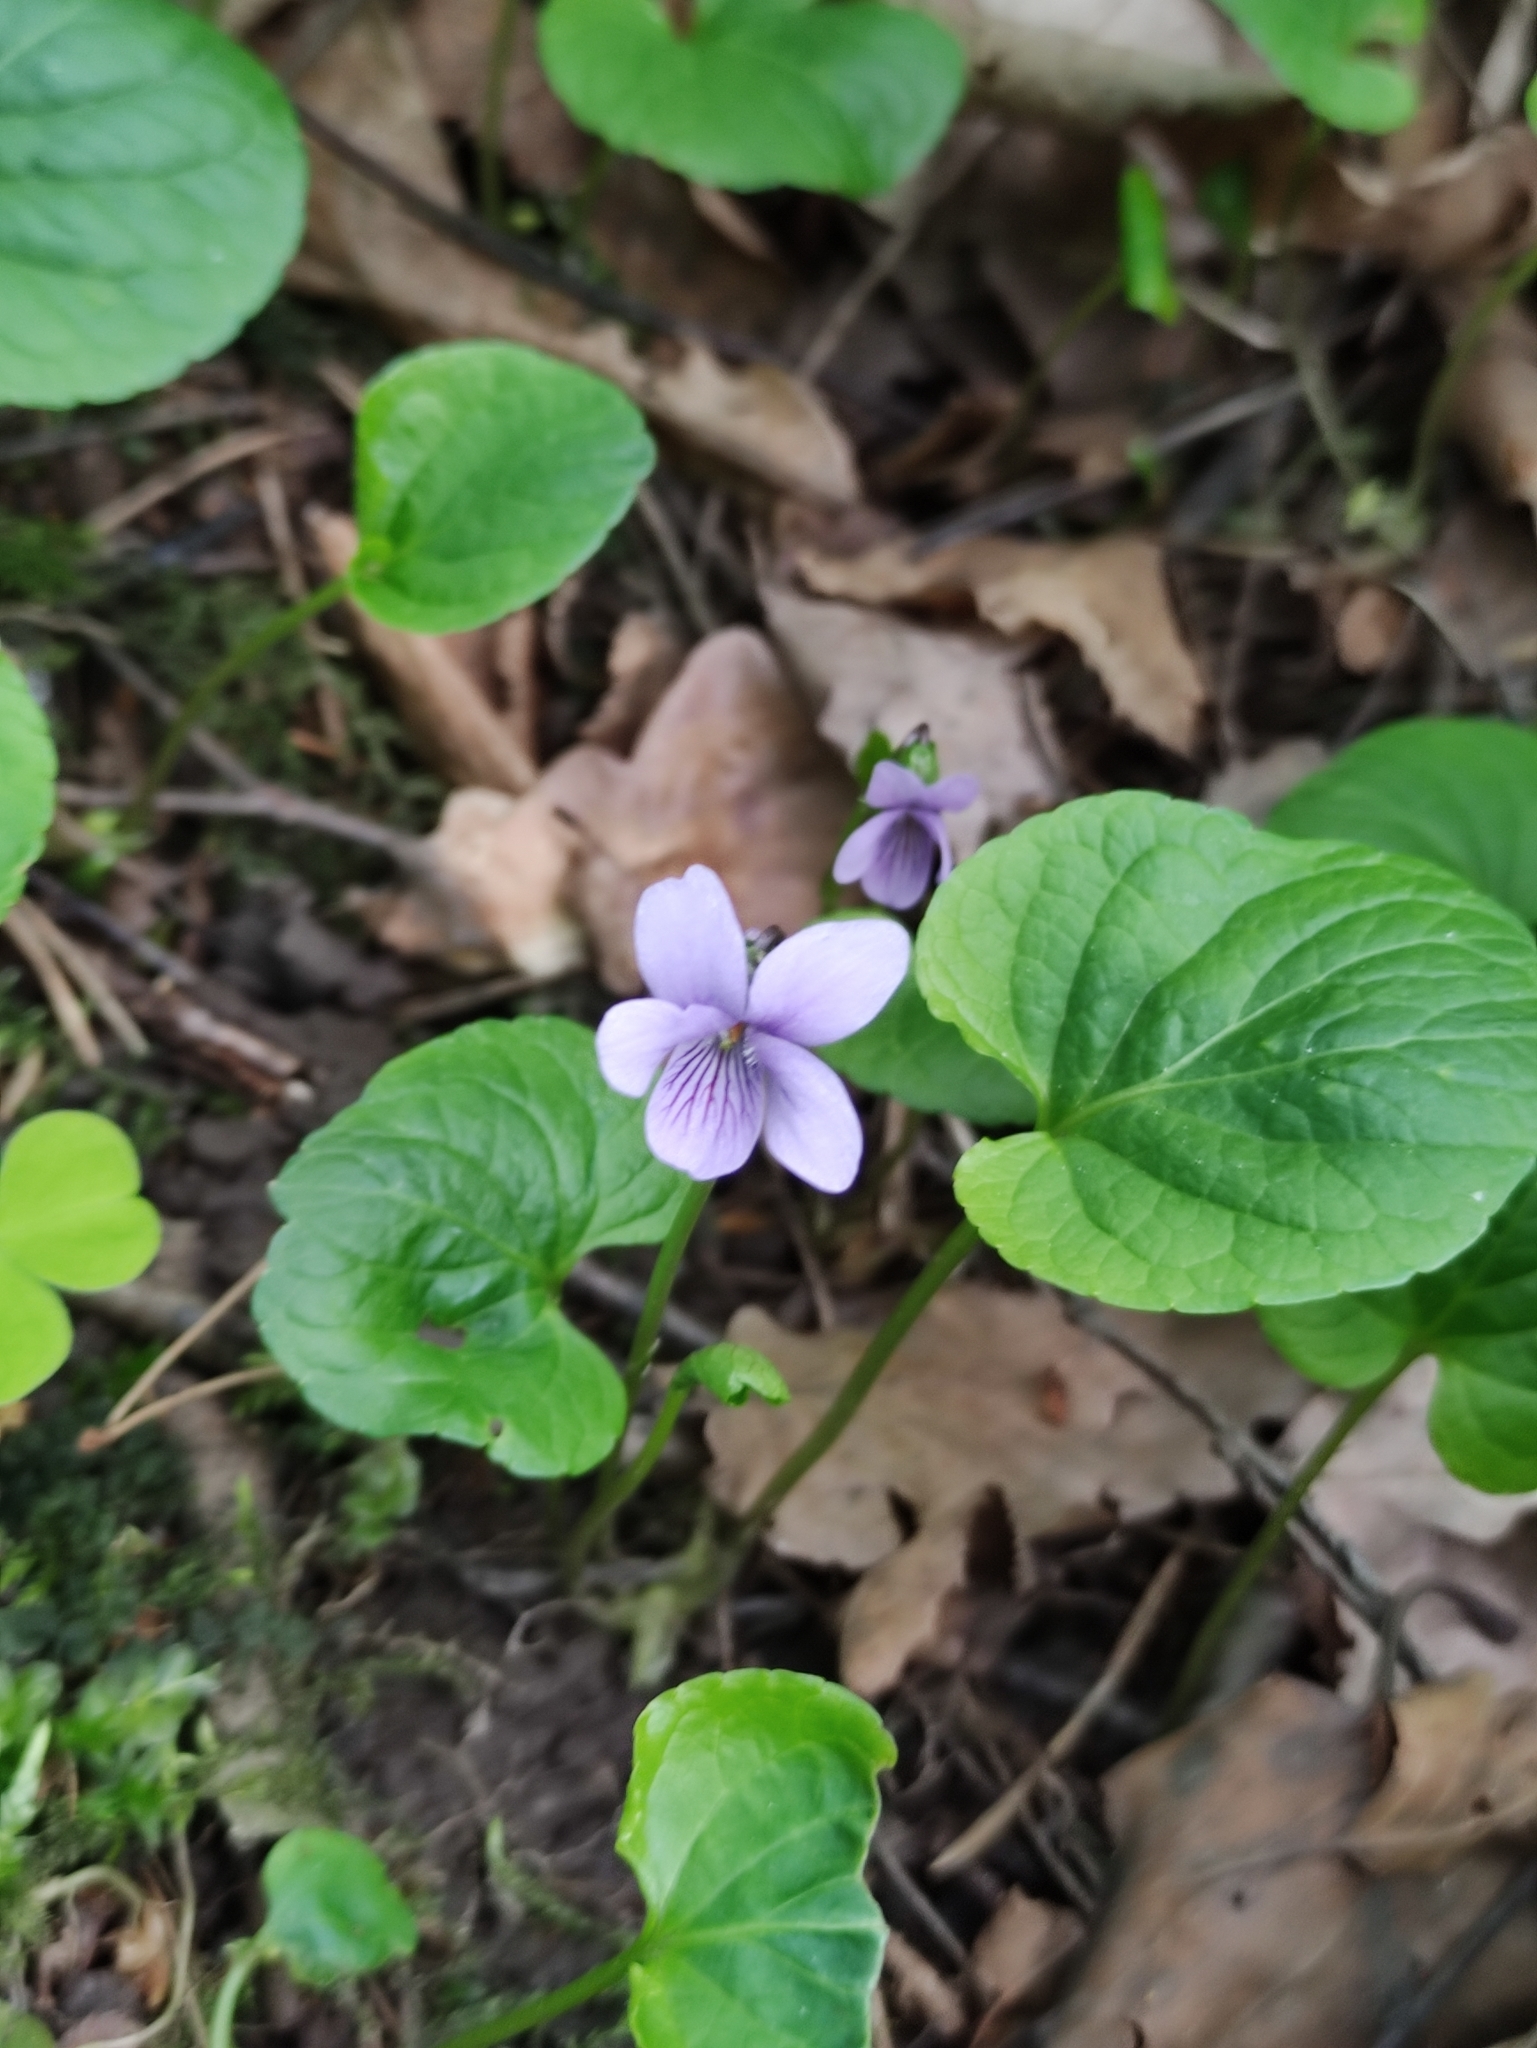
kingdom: Plantae
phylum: Tracheophyta
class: Magnoliopsida
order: Malpighiales
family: Violaceae
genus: Viola
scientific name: Viola palustris
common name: Marsh violet
